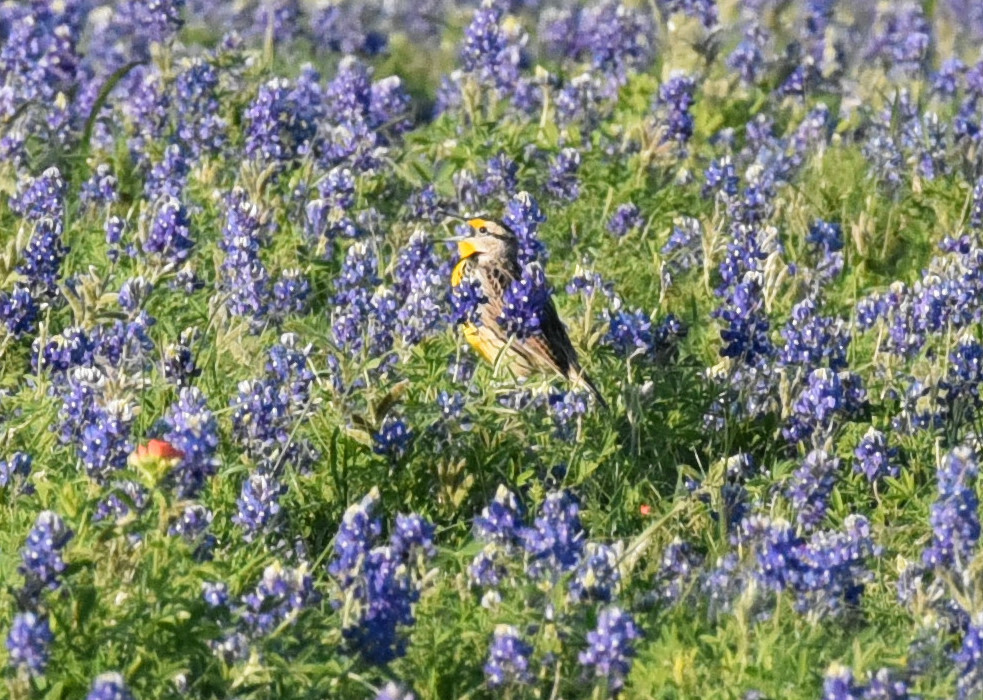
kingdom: Animalia
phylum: Chordata
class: Aves
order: Passeriformes
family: Icteridae
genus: Sturnella
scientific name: Sturnella magna
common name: Eastern meadowlark
